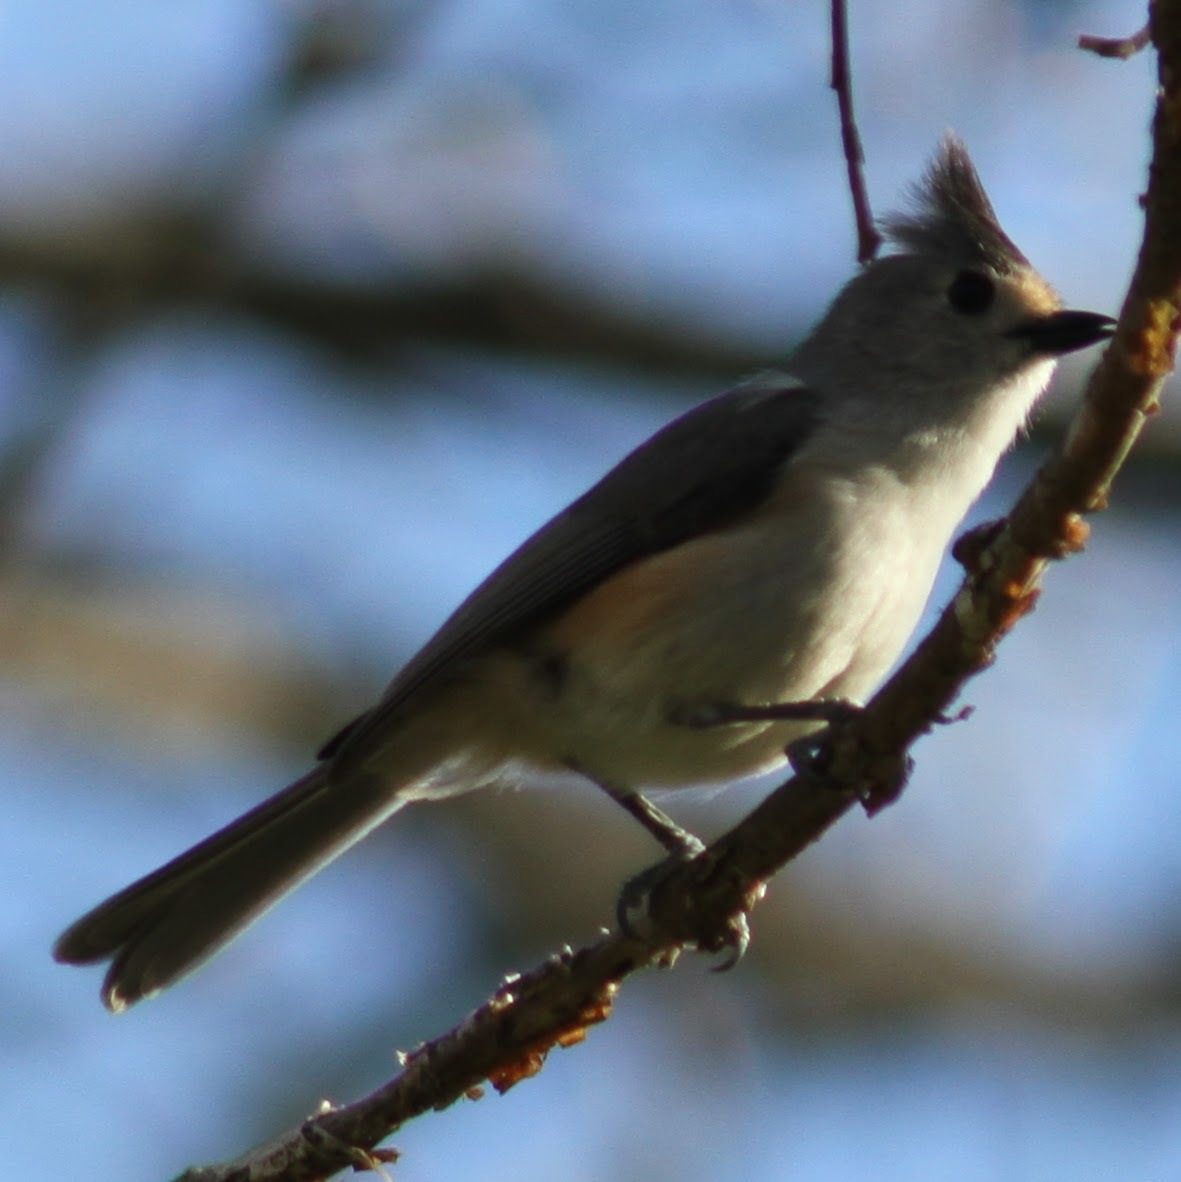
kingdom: Animalia
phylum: Chordata
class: Aves
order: Passeriformes
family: Paridae
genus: Baeolophus
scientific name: Baeolophus
